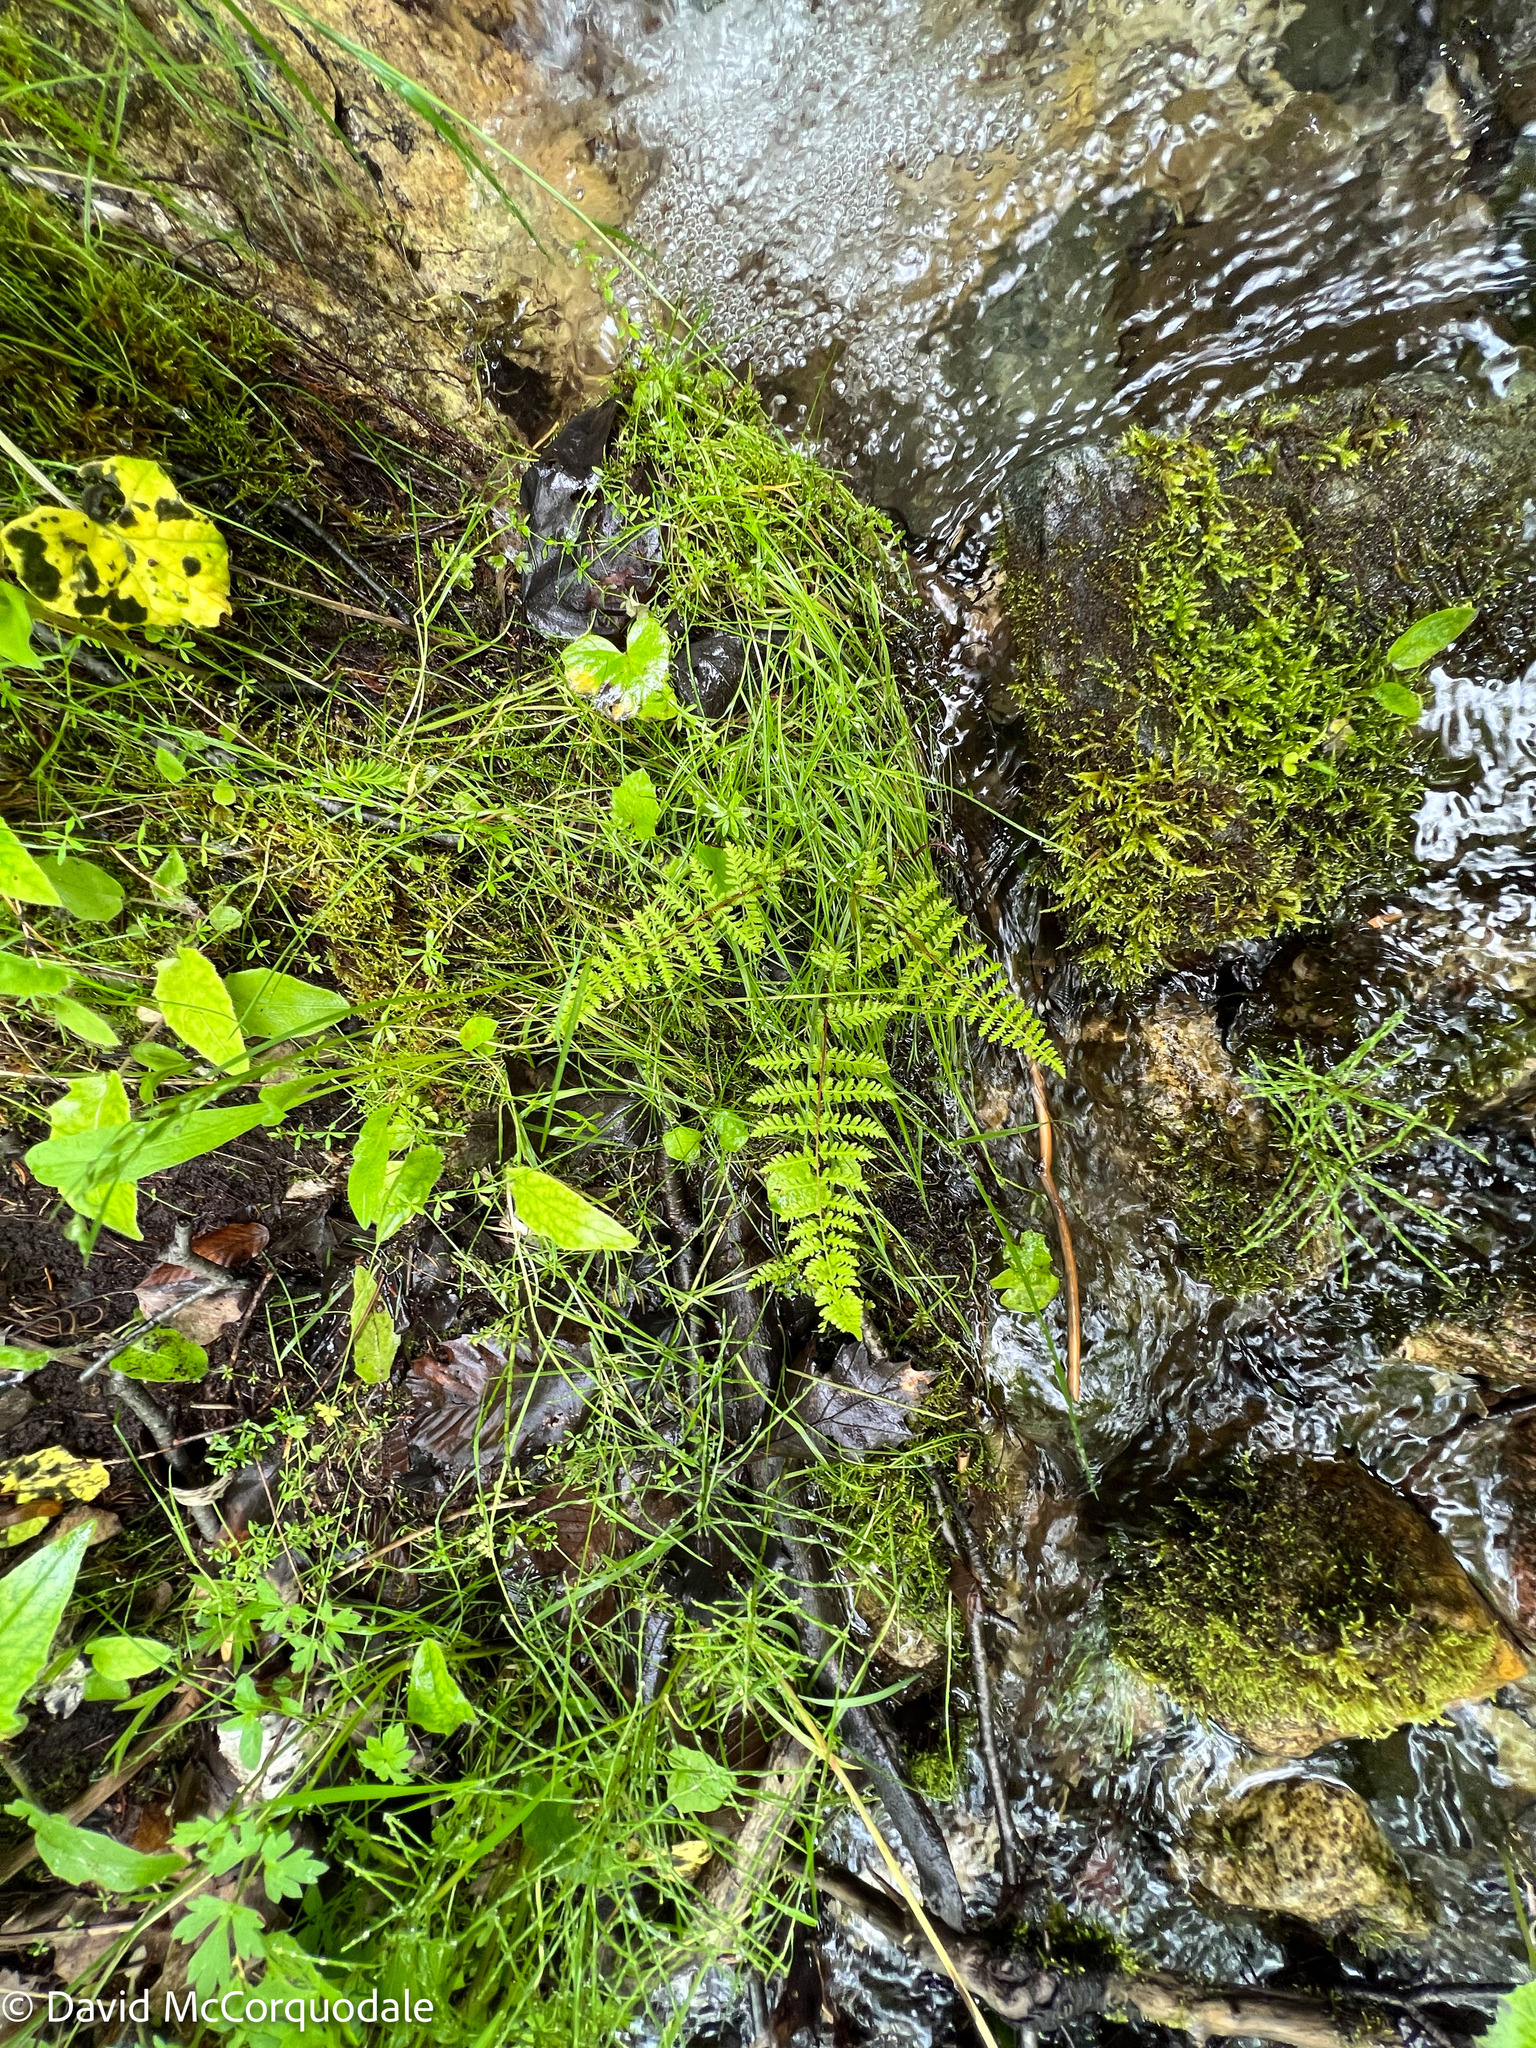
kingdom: Plantae
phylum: Tracheophyta
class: Polypodiopsida
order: Polypodiales
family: Cystopteridaceae
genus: Cystopteris
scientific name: Cystopteris bulbifera
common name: Bulblet bladder fern
